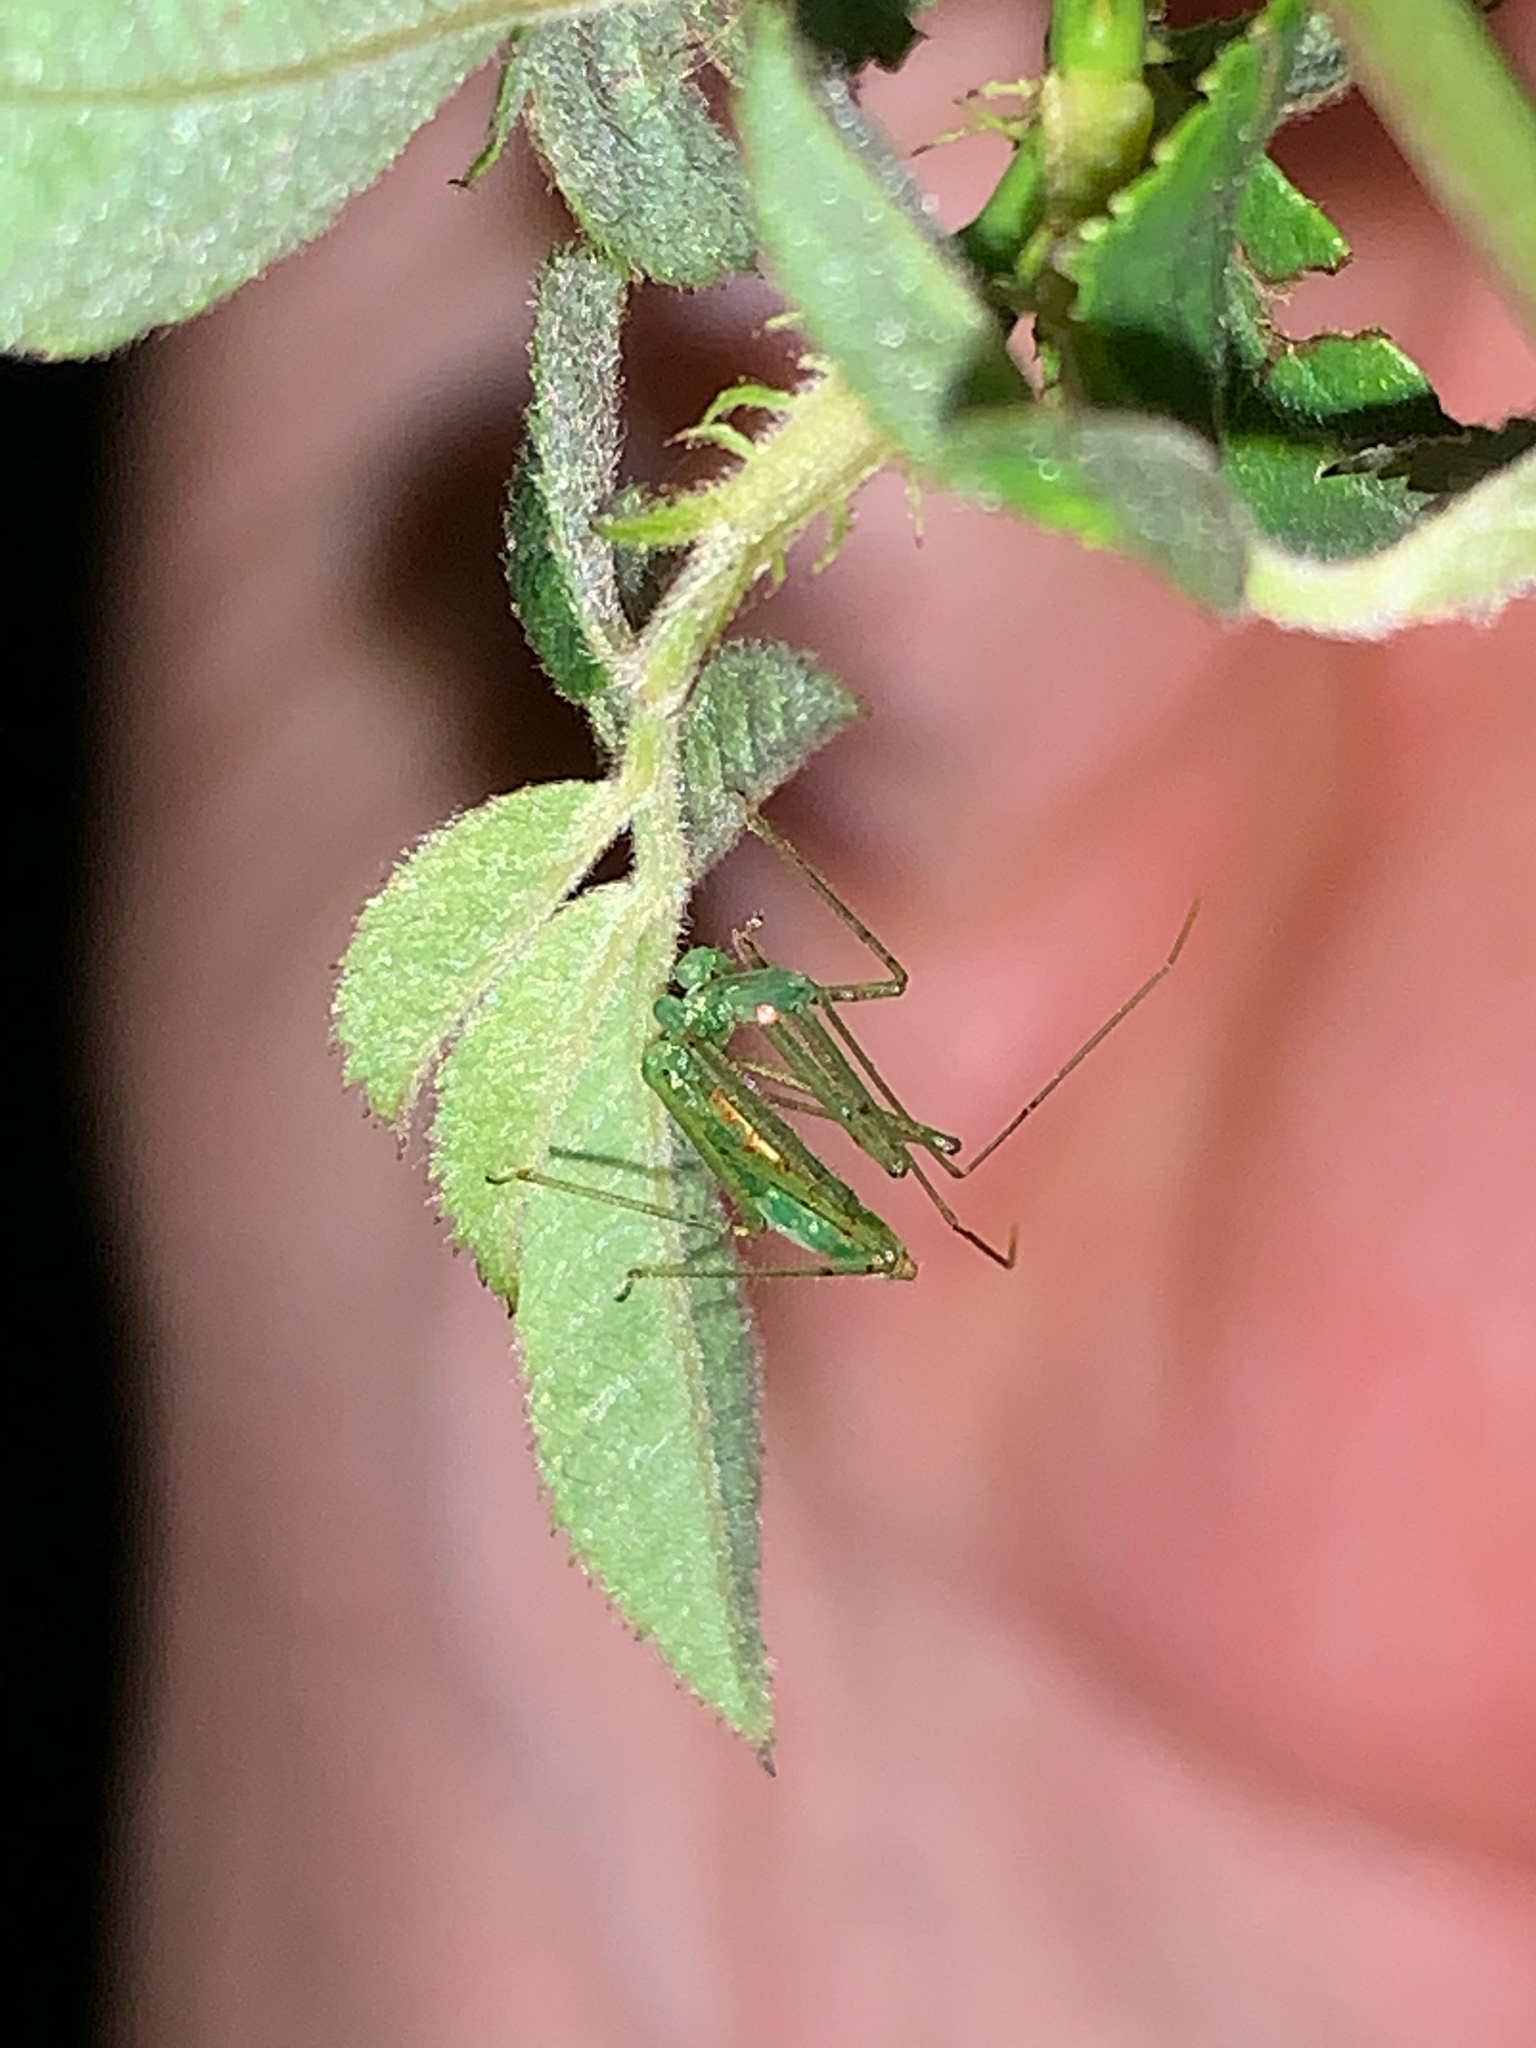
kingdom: Animalia
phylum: Arthropoda
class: Insecta
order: Hemiptera
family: Reduviidae
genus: Zelus
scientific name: Zelus luridus
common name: Pale green assassin bug
